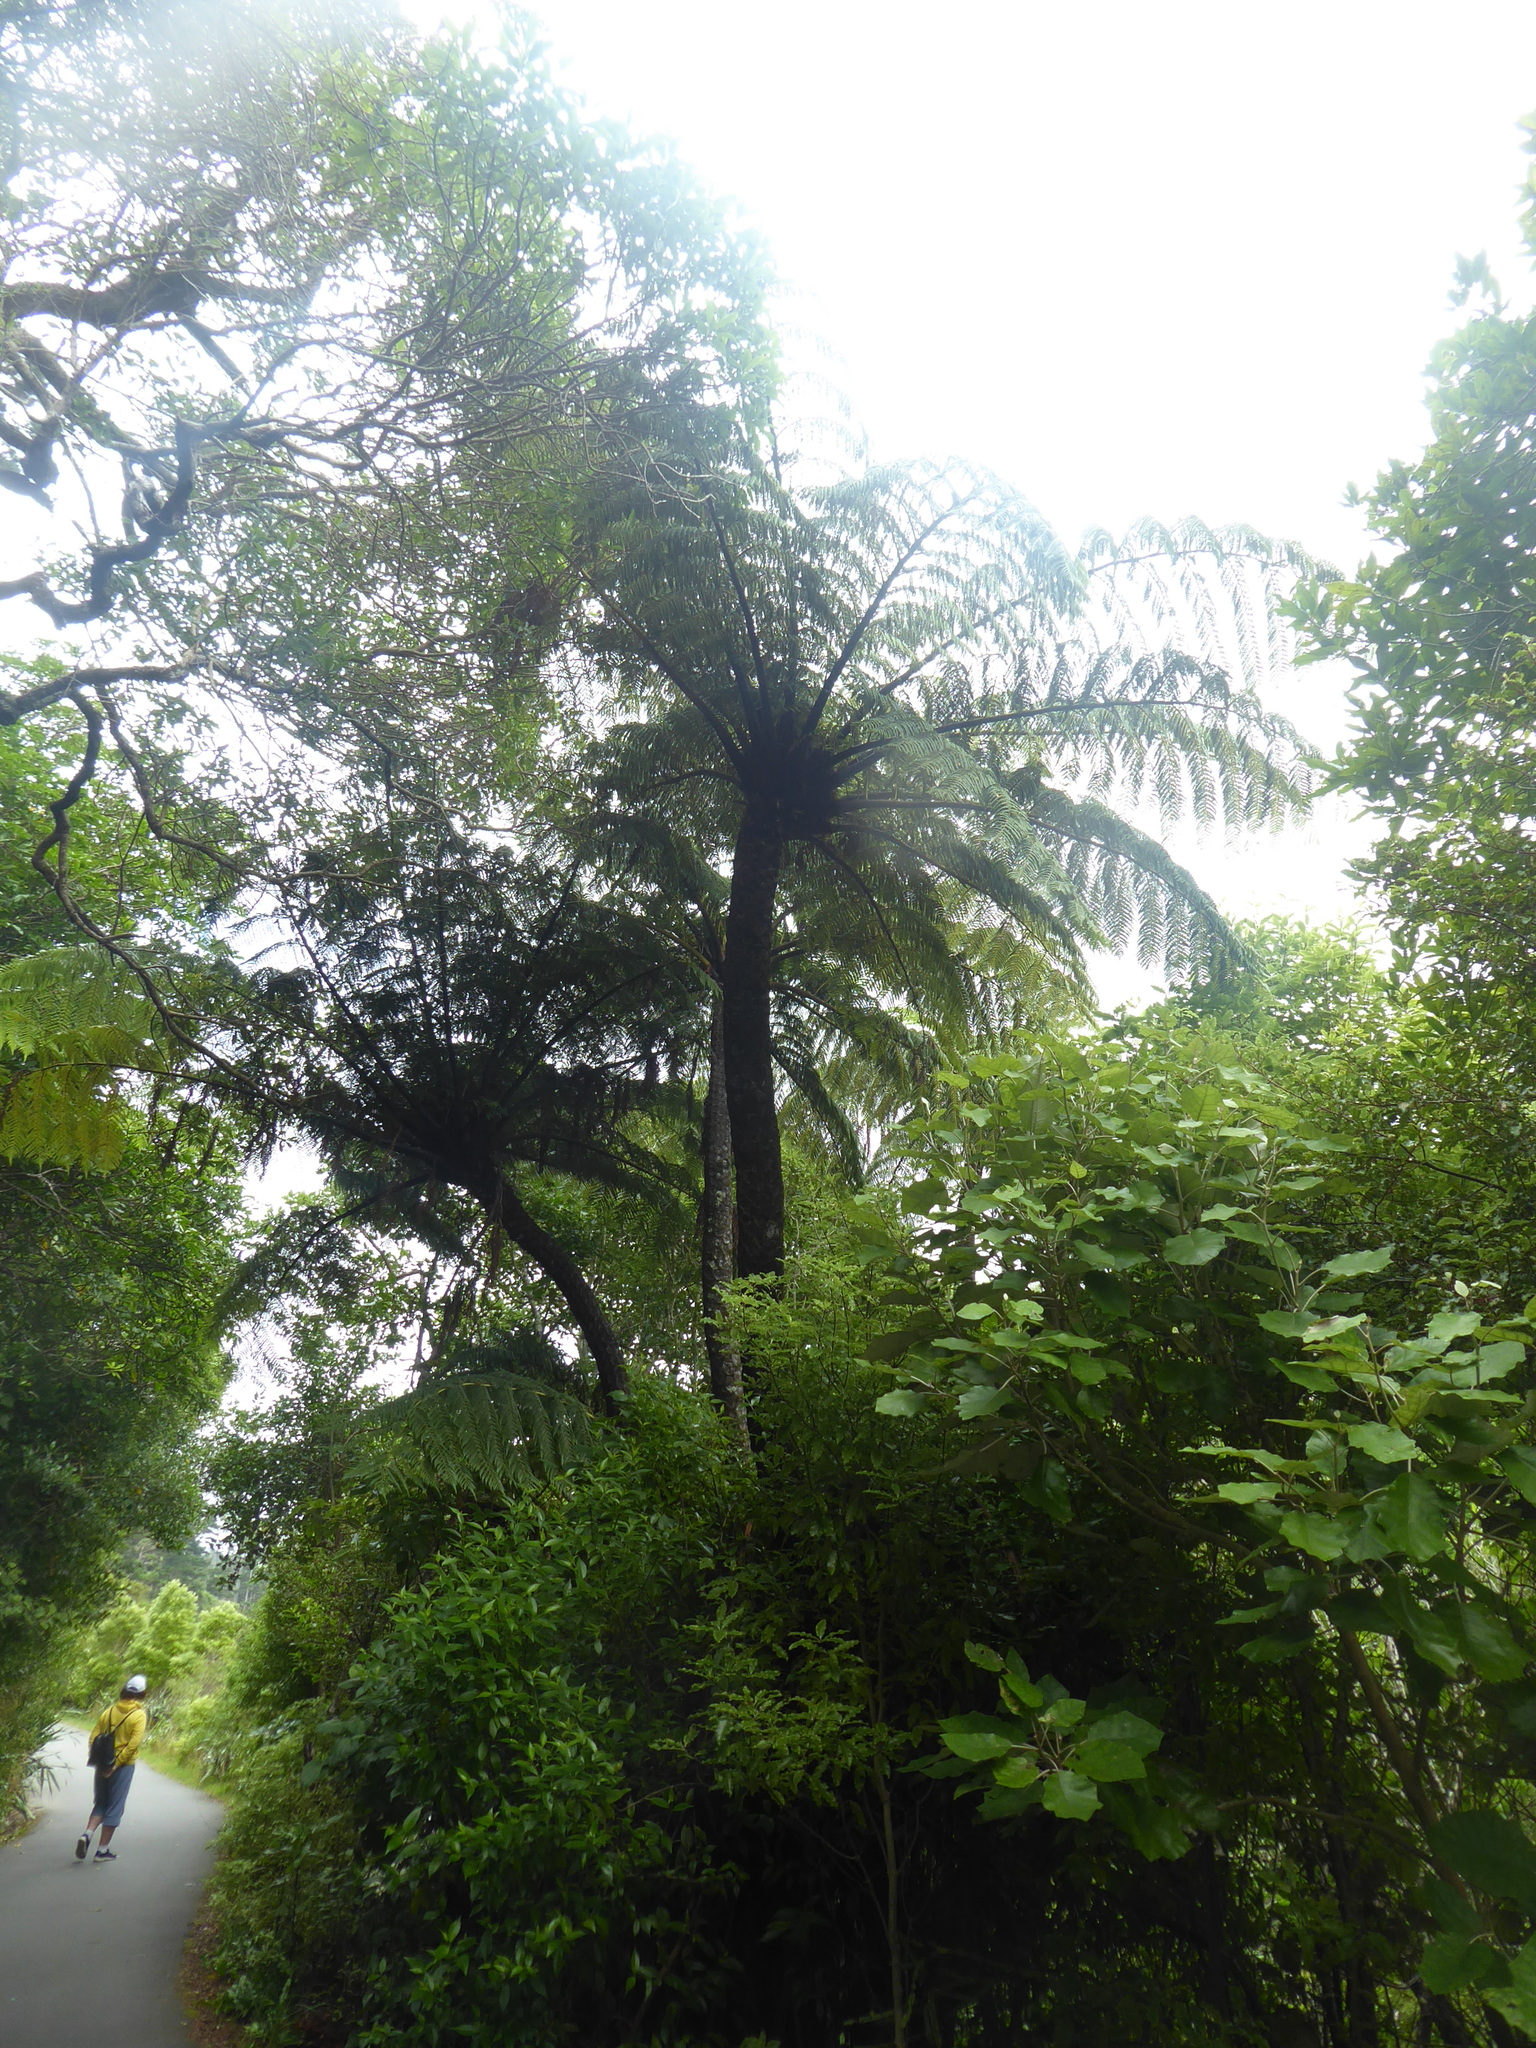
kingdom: Plantae
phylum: Tracheophyta
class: Polypodiopsida
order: Cyatheales
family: Cyatheaceae
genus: Sphaeropteris
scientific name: Sphaeropteris medullaris
